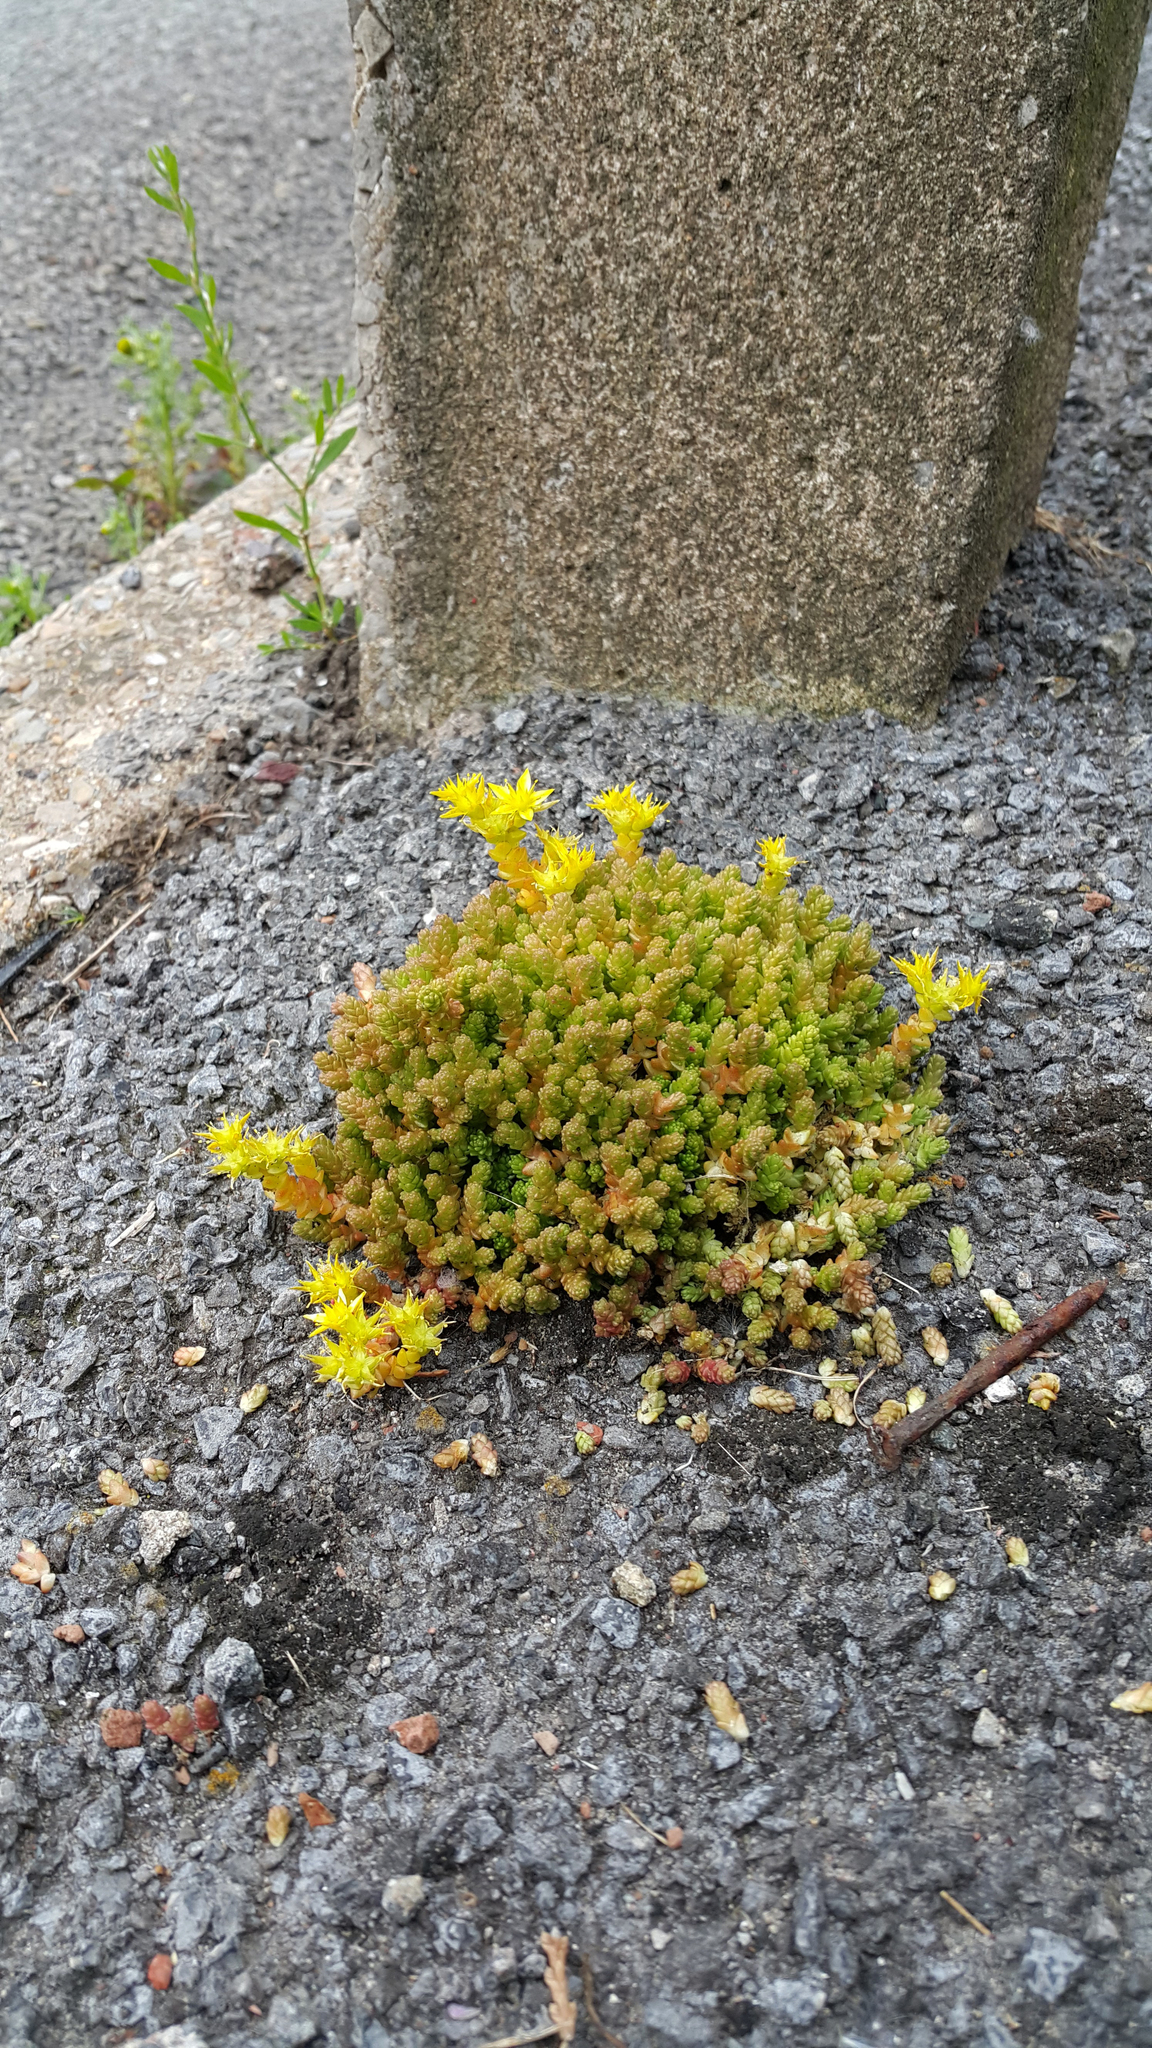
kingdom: Plantae
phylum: Tracheophyta
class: Magnoliopsida
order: Saxifragales
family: Crassulaceae
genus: Sedum
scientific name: Sedum acre
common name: Biting stonecrop
